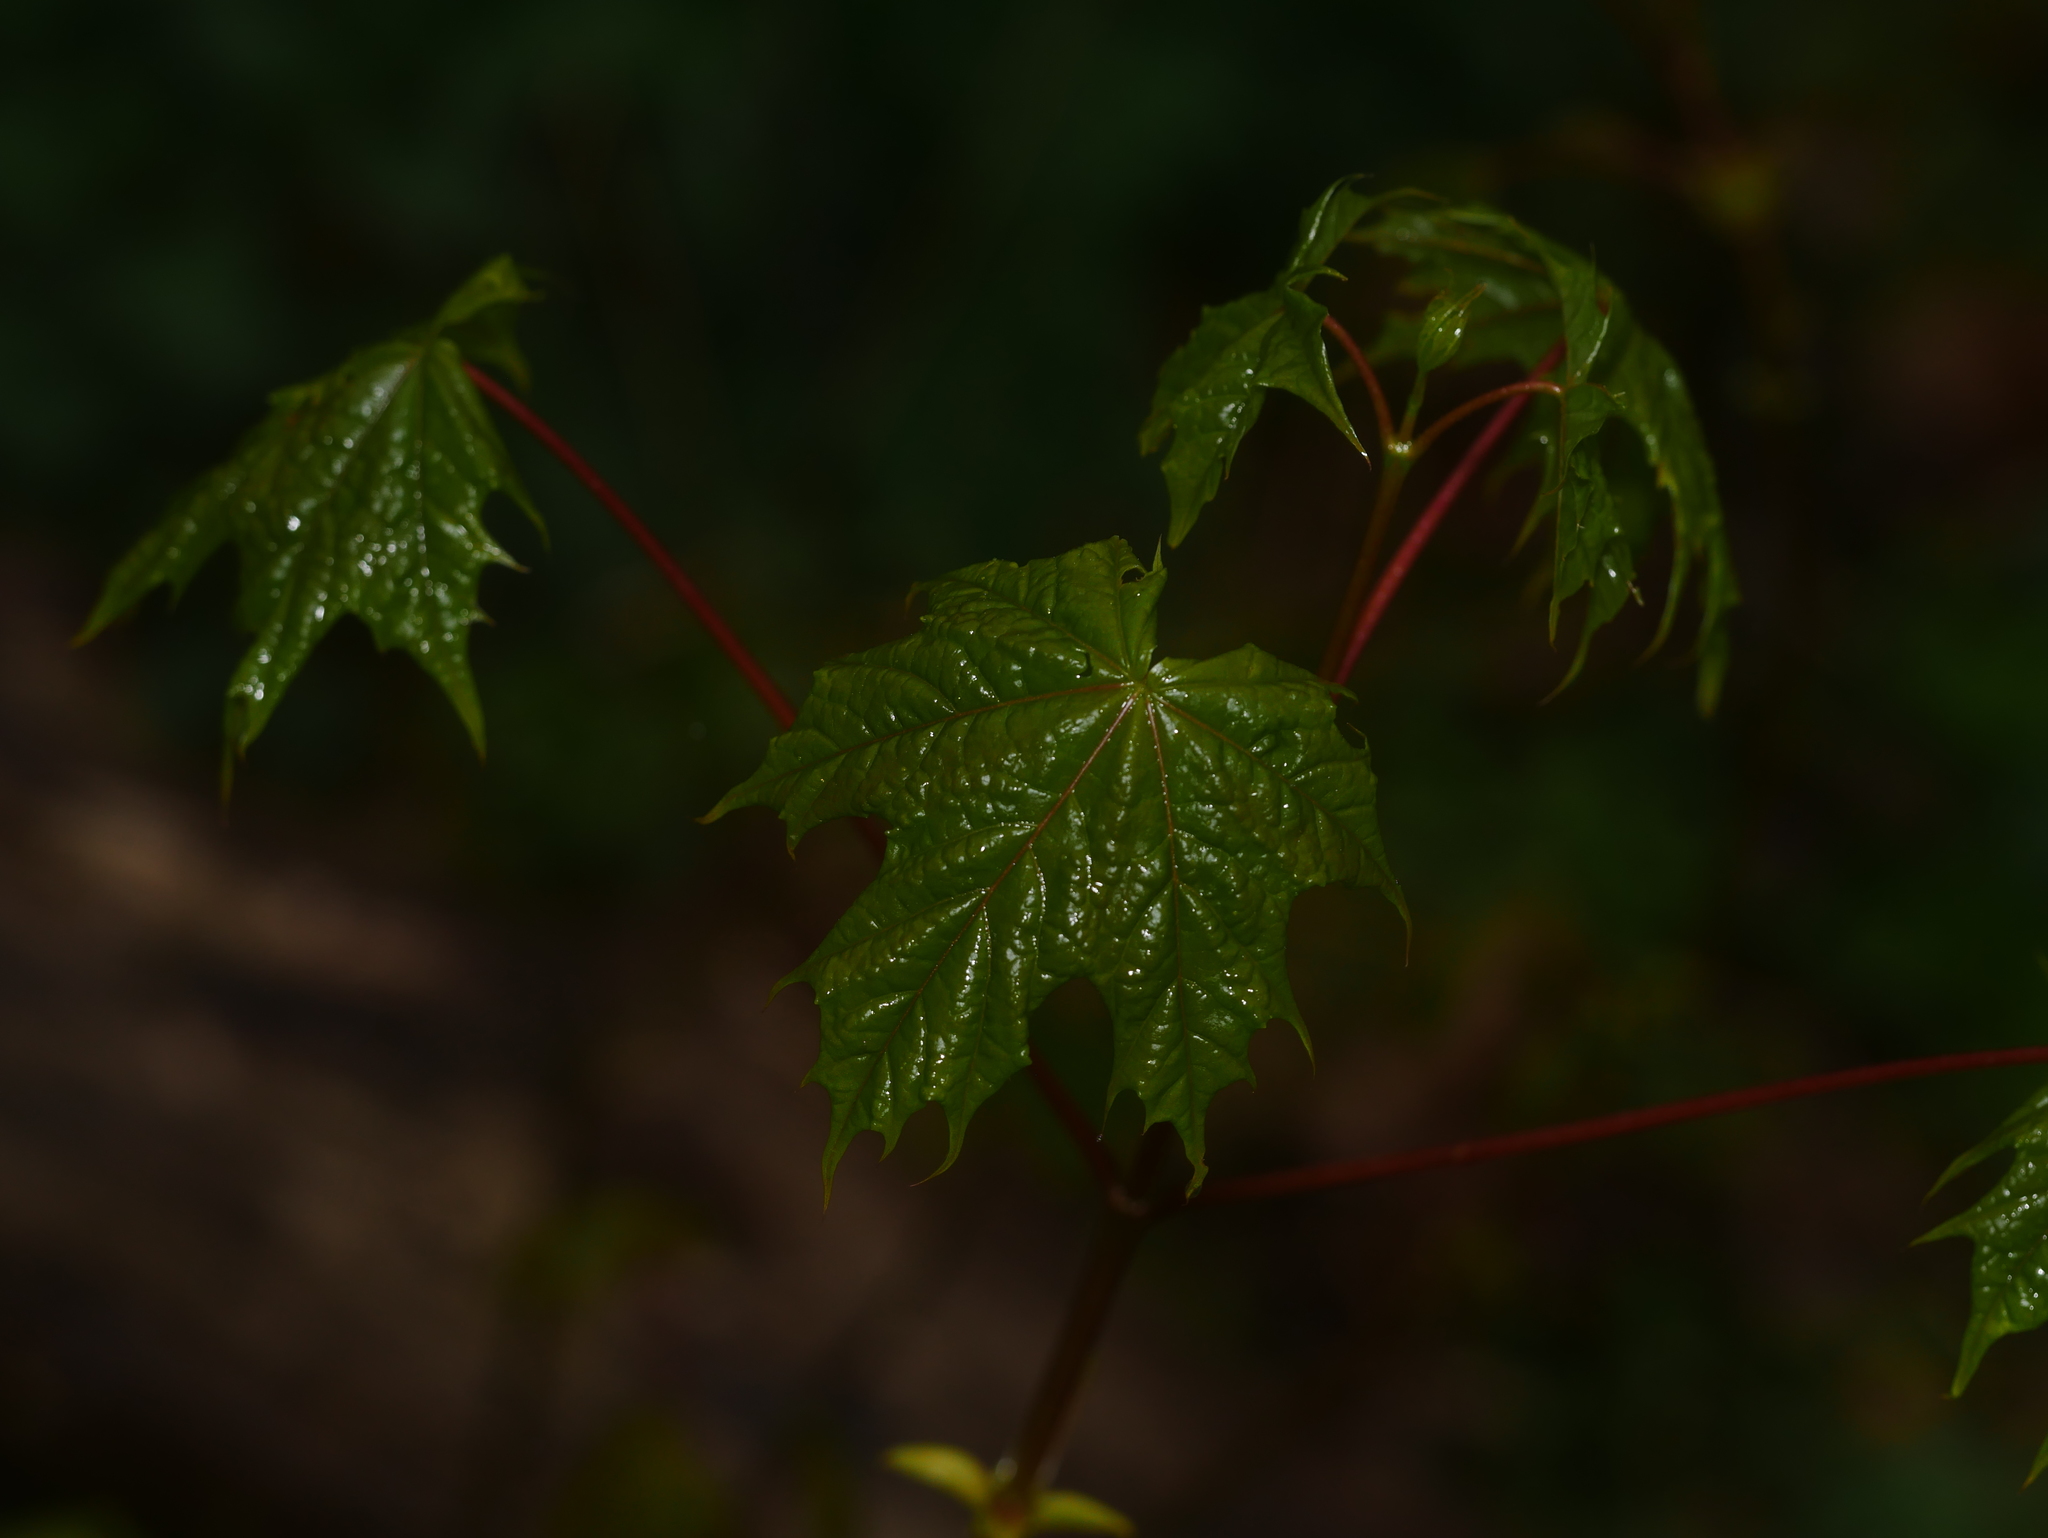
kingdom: Plantae
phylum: Tracheophyta
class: Magnoliopsida
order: Sapindales
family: Sapindaceae
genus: Acer
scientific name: Acer platanoides
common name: Norway maple
